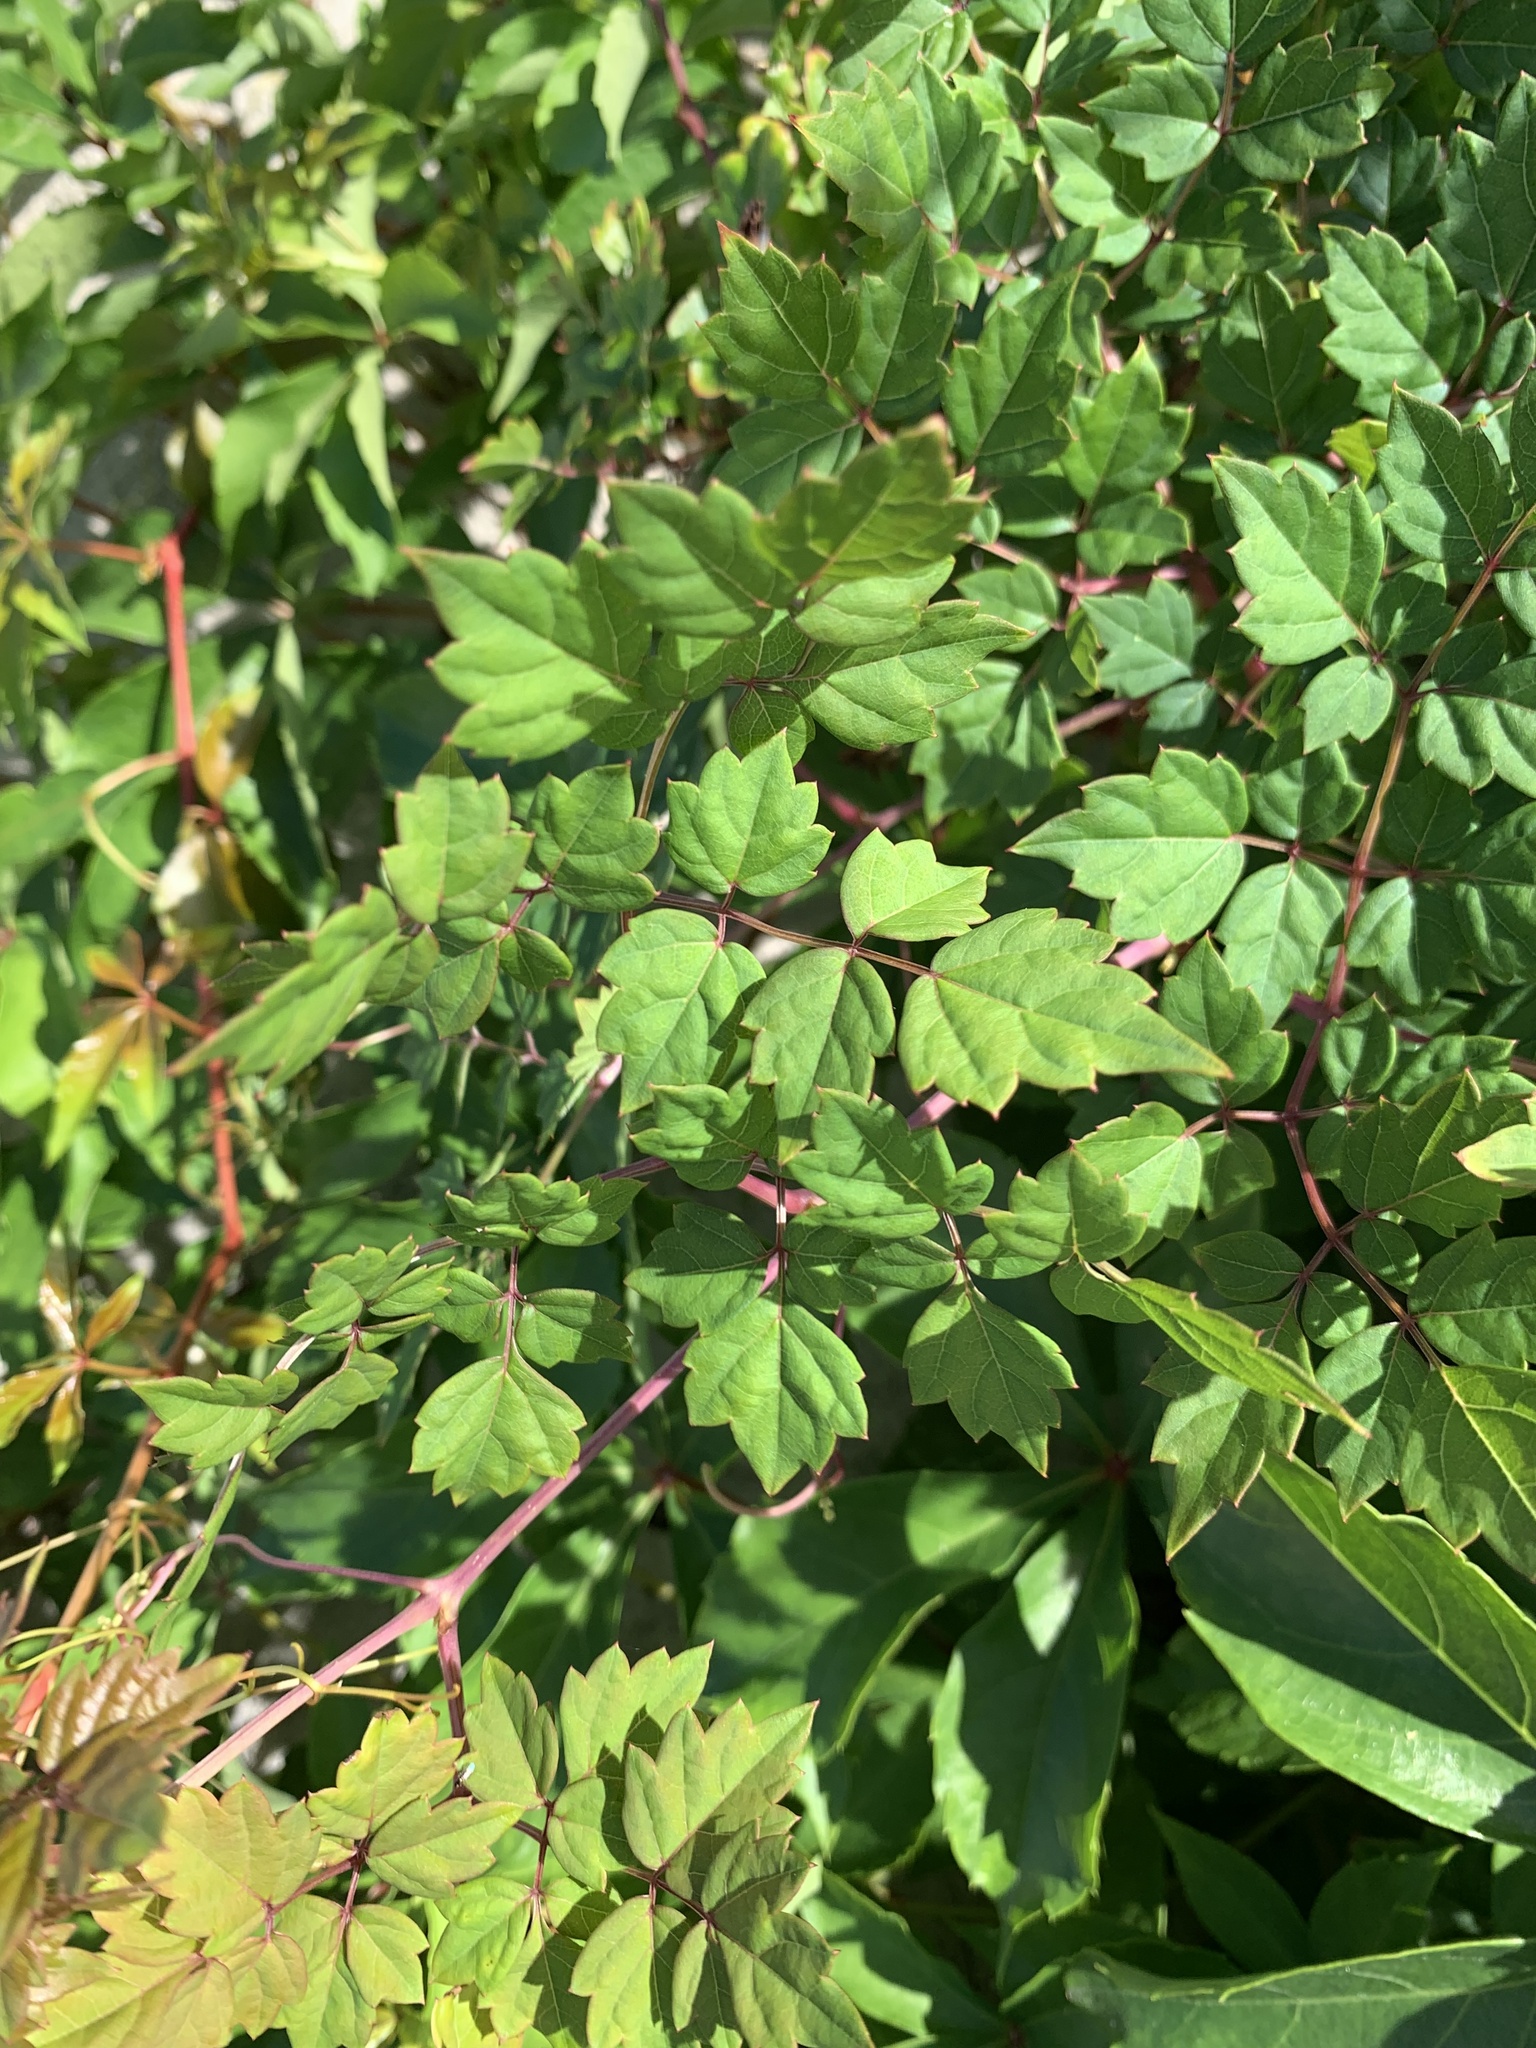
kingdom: Plantae
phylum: Tracheophyta
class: Magnoliopsida
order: Vitales
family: Vitaceae
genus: Nekemias
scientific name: Nekemias arborea
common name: Peppervine
